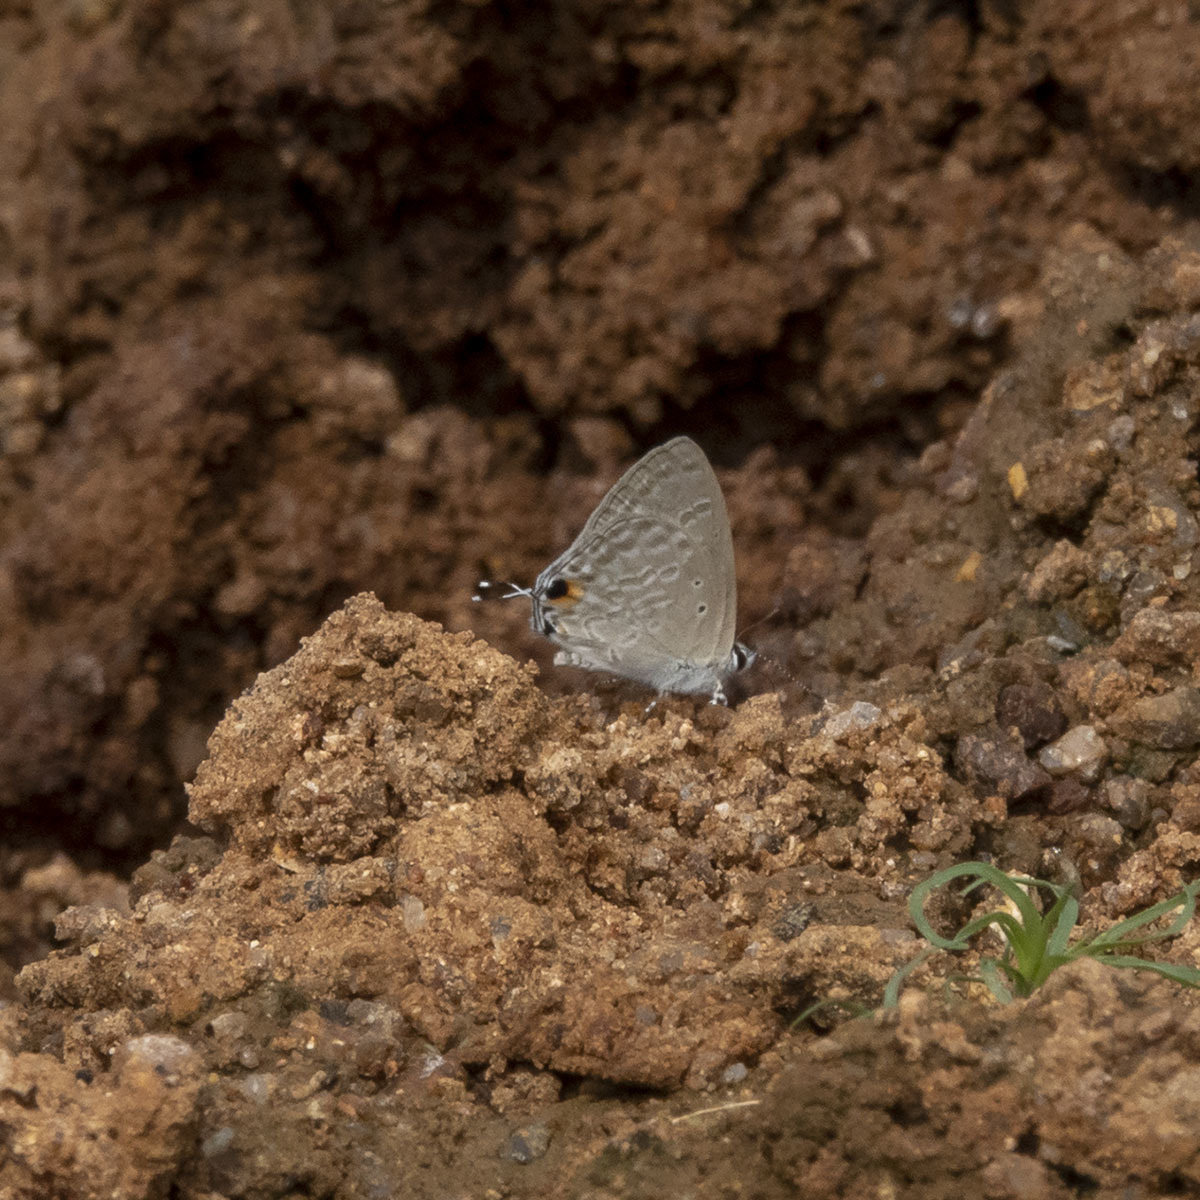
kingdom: Animalia
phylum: Arthropoda
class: Insecta
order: Lepidoptera
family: Lycaenidae
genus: Catochrysops
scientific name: Catochrysops strabo
